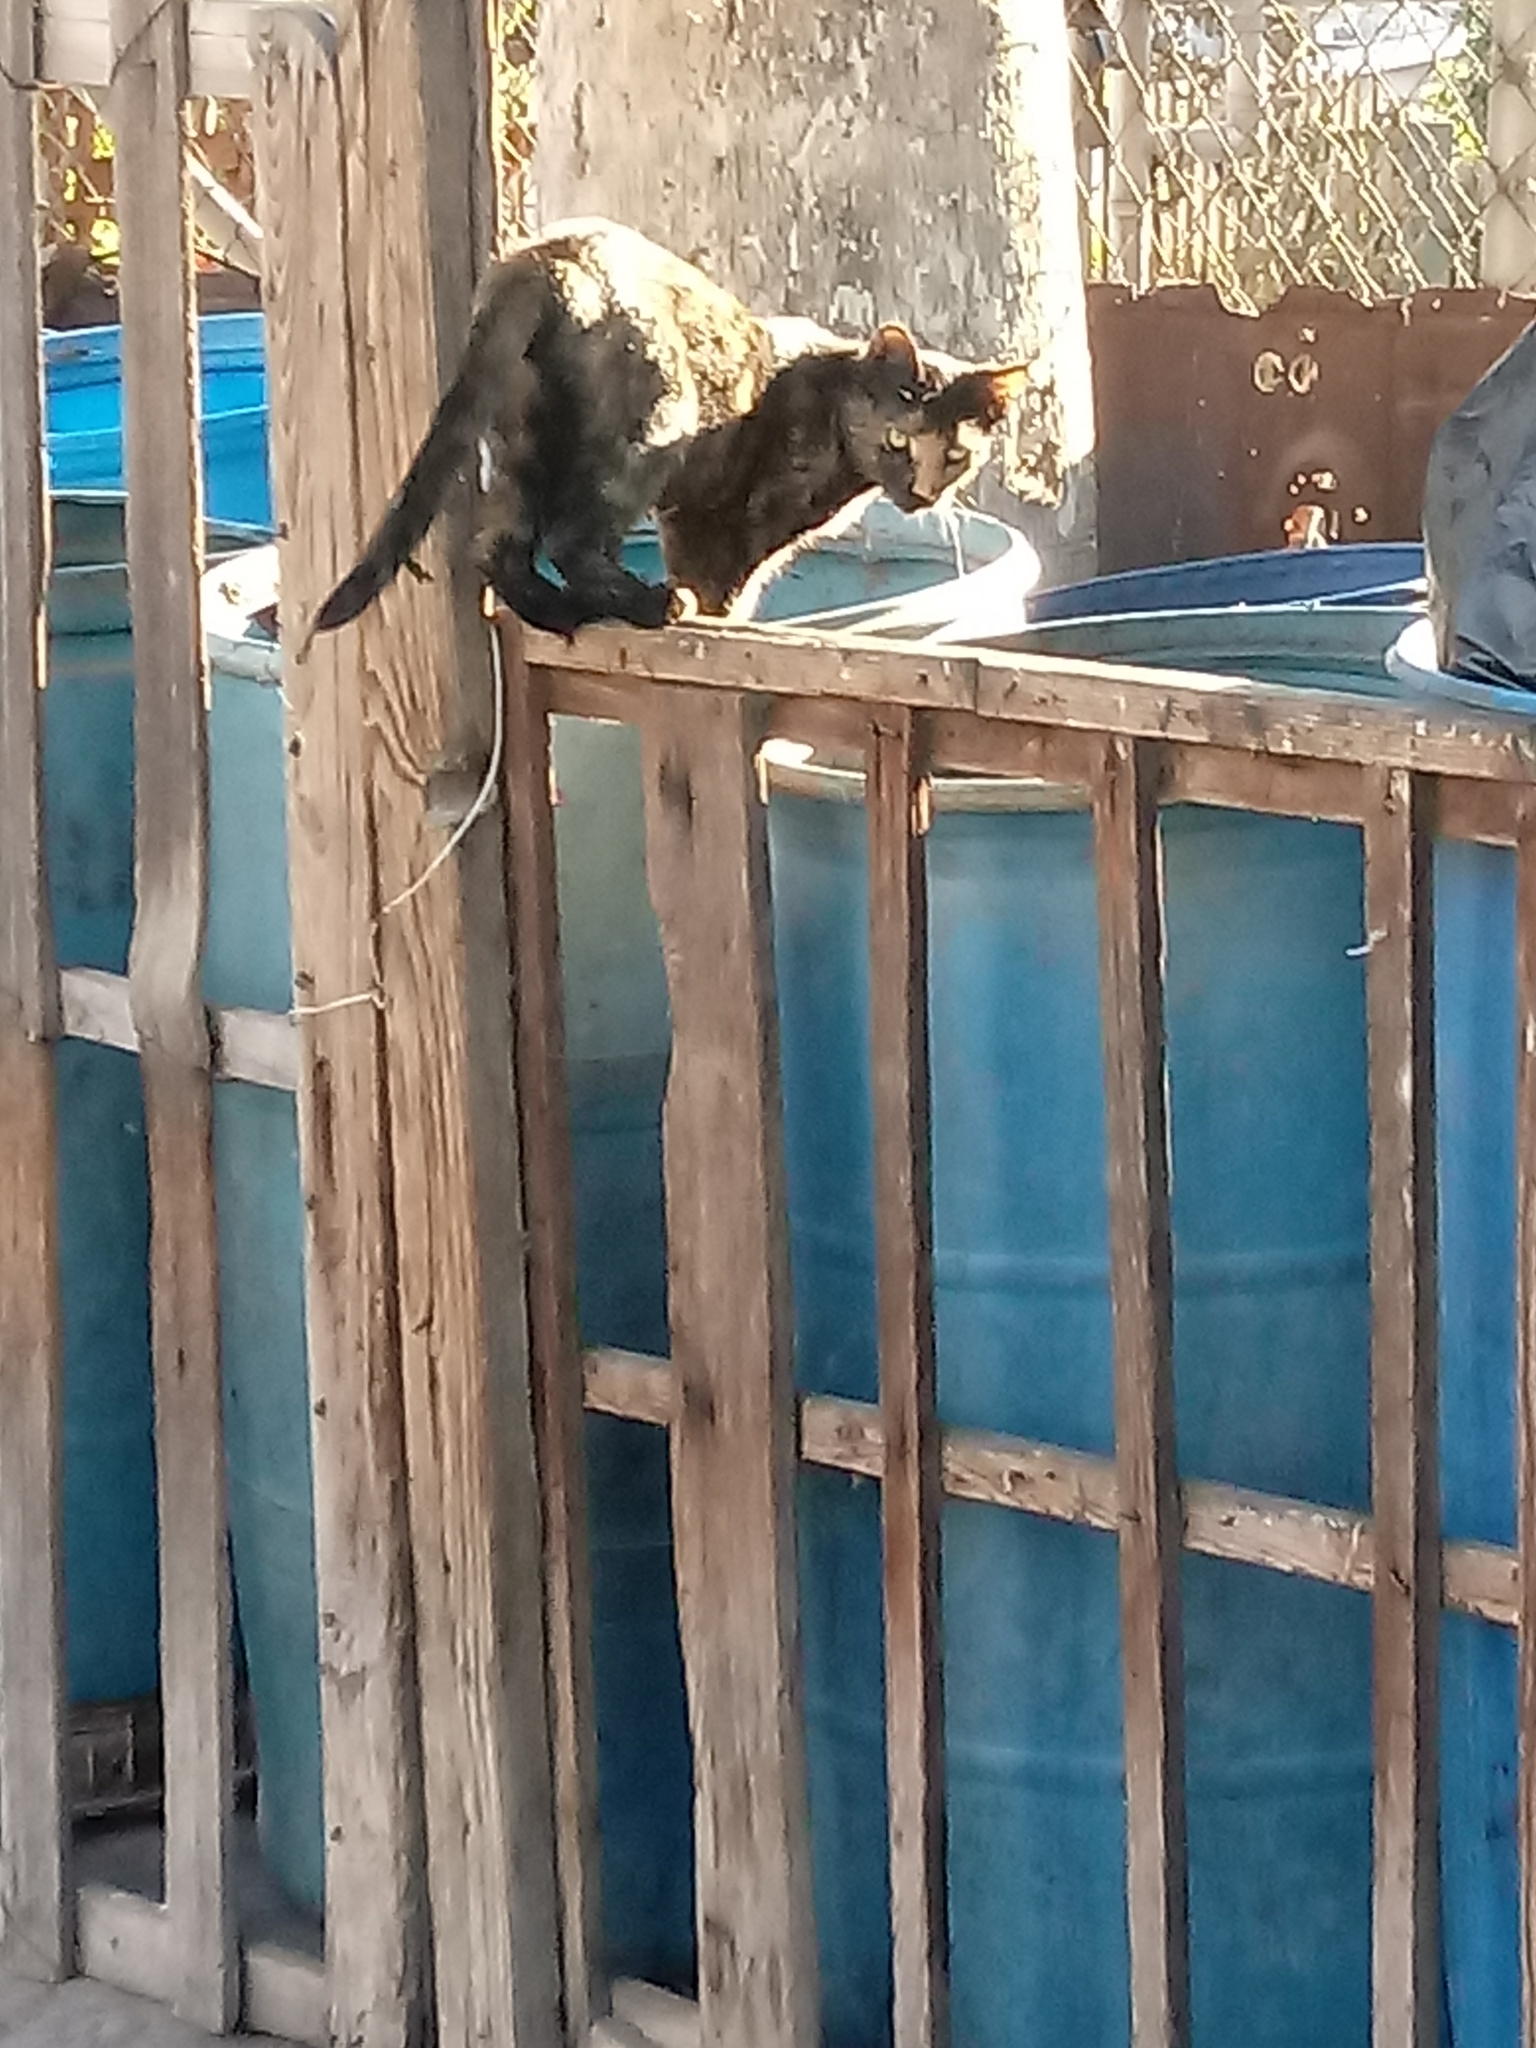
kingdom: Animalia
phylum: Chordata
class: Mammalia
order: Carnivora
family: Felidae
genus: Felis
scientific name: Felis catus
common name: Domestic cat
